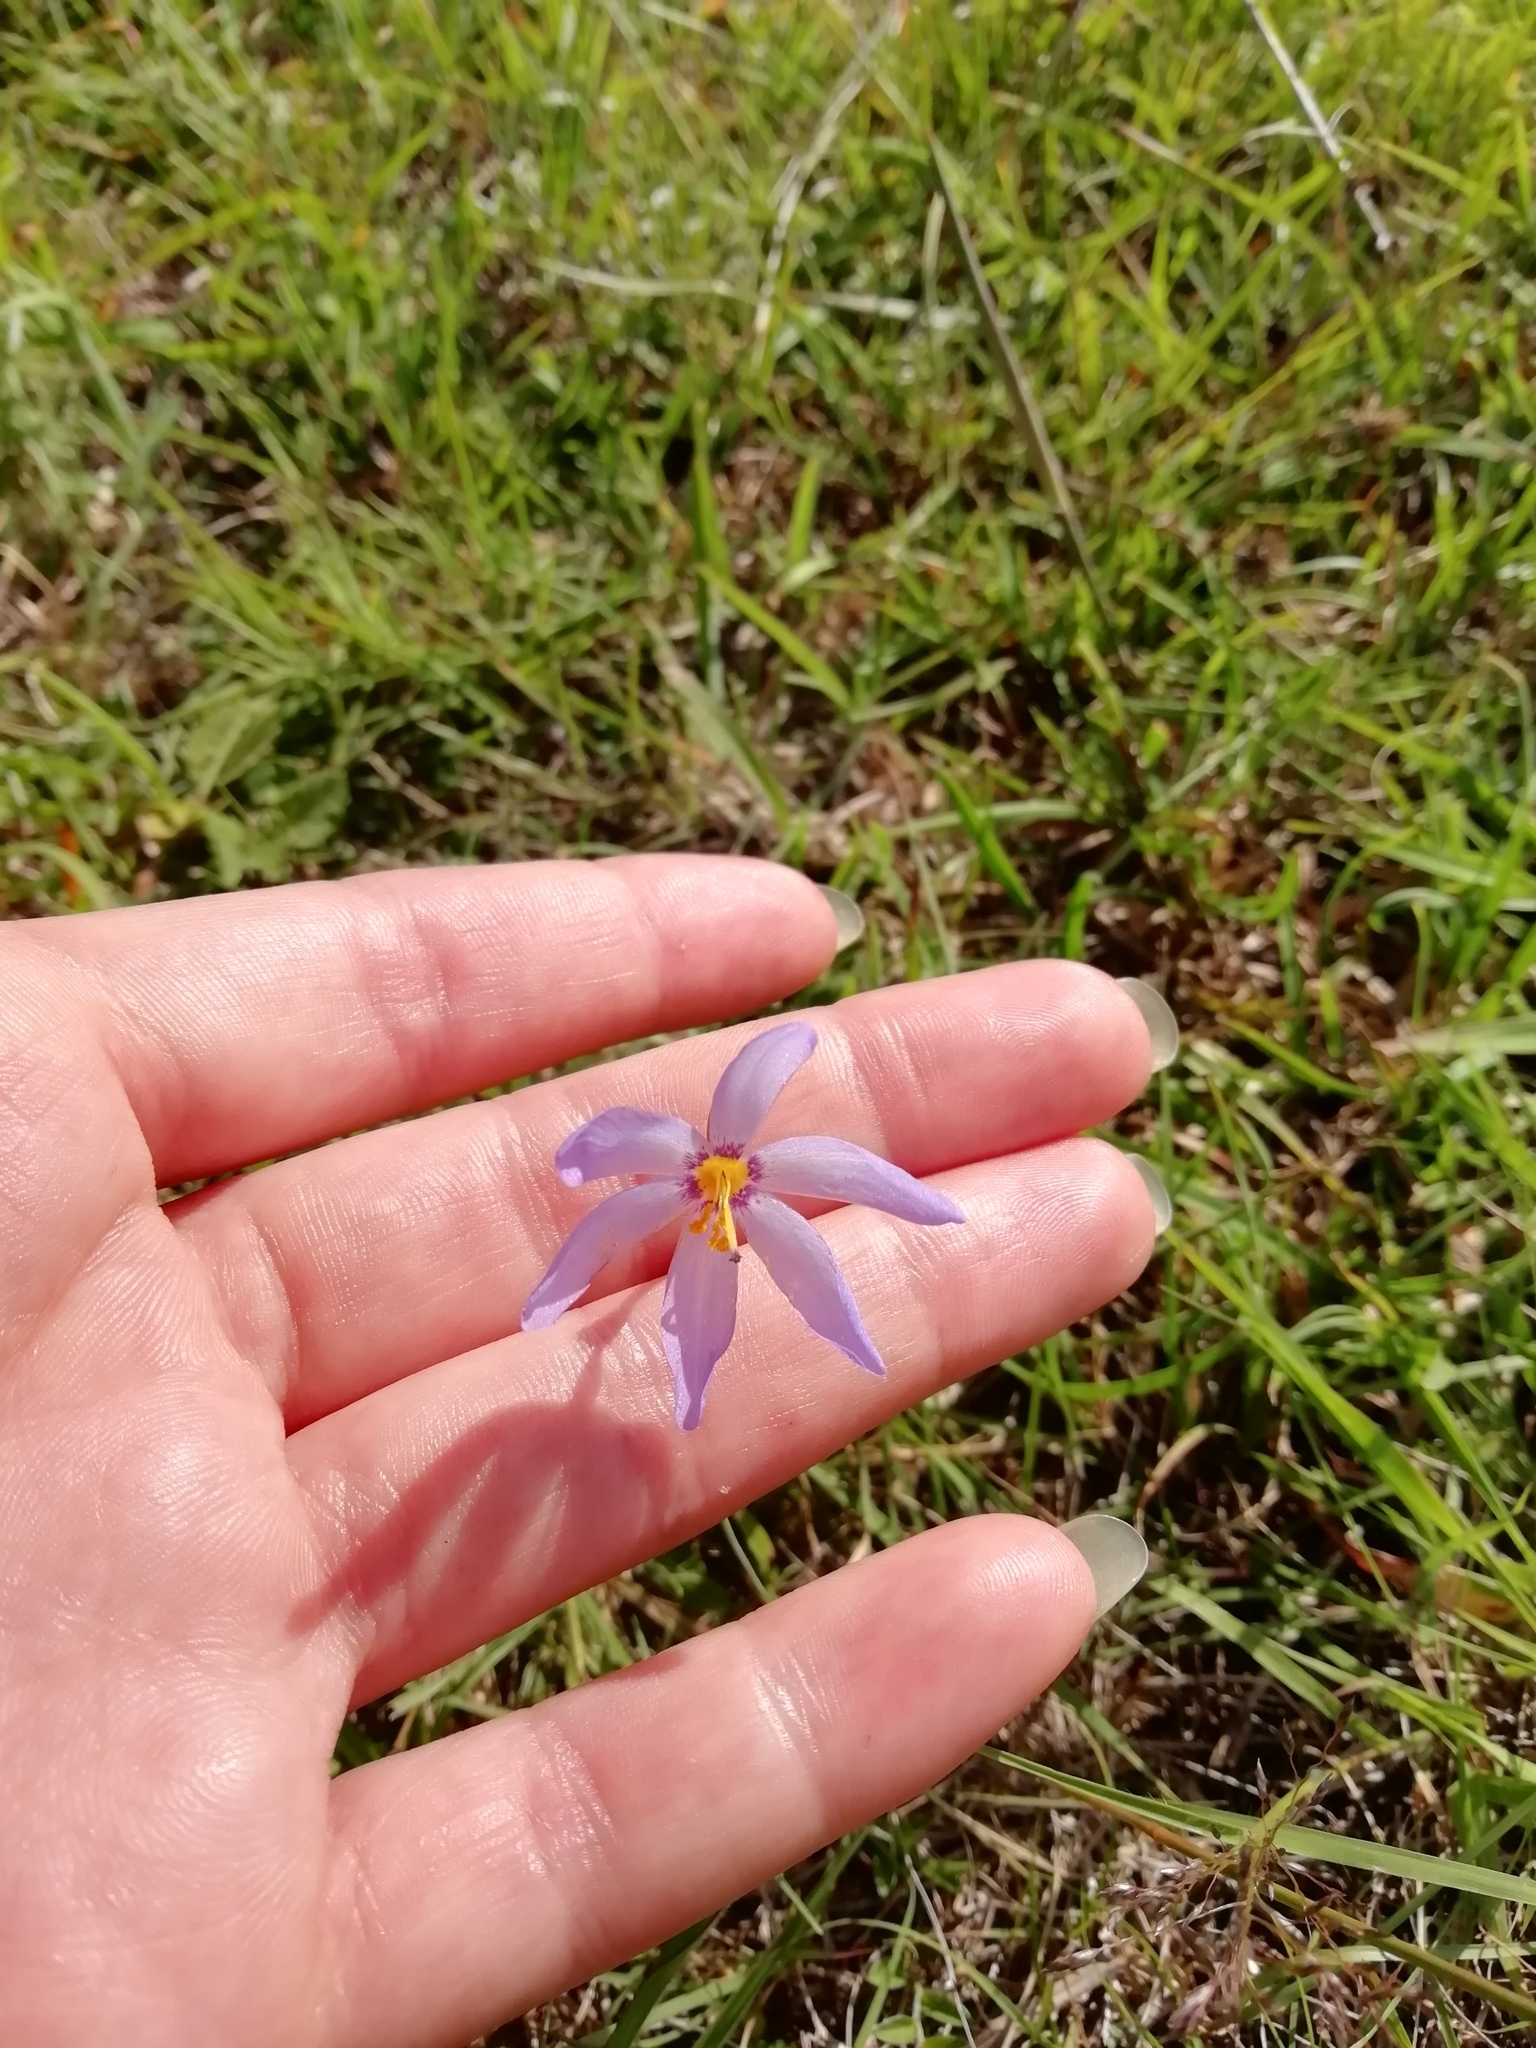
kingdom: Plantae
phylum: Tracheophyta
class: Liliopsida
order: Asparagales
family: Iridaceae
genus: Calydorea
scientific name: Calydorea charruana
